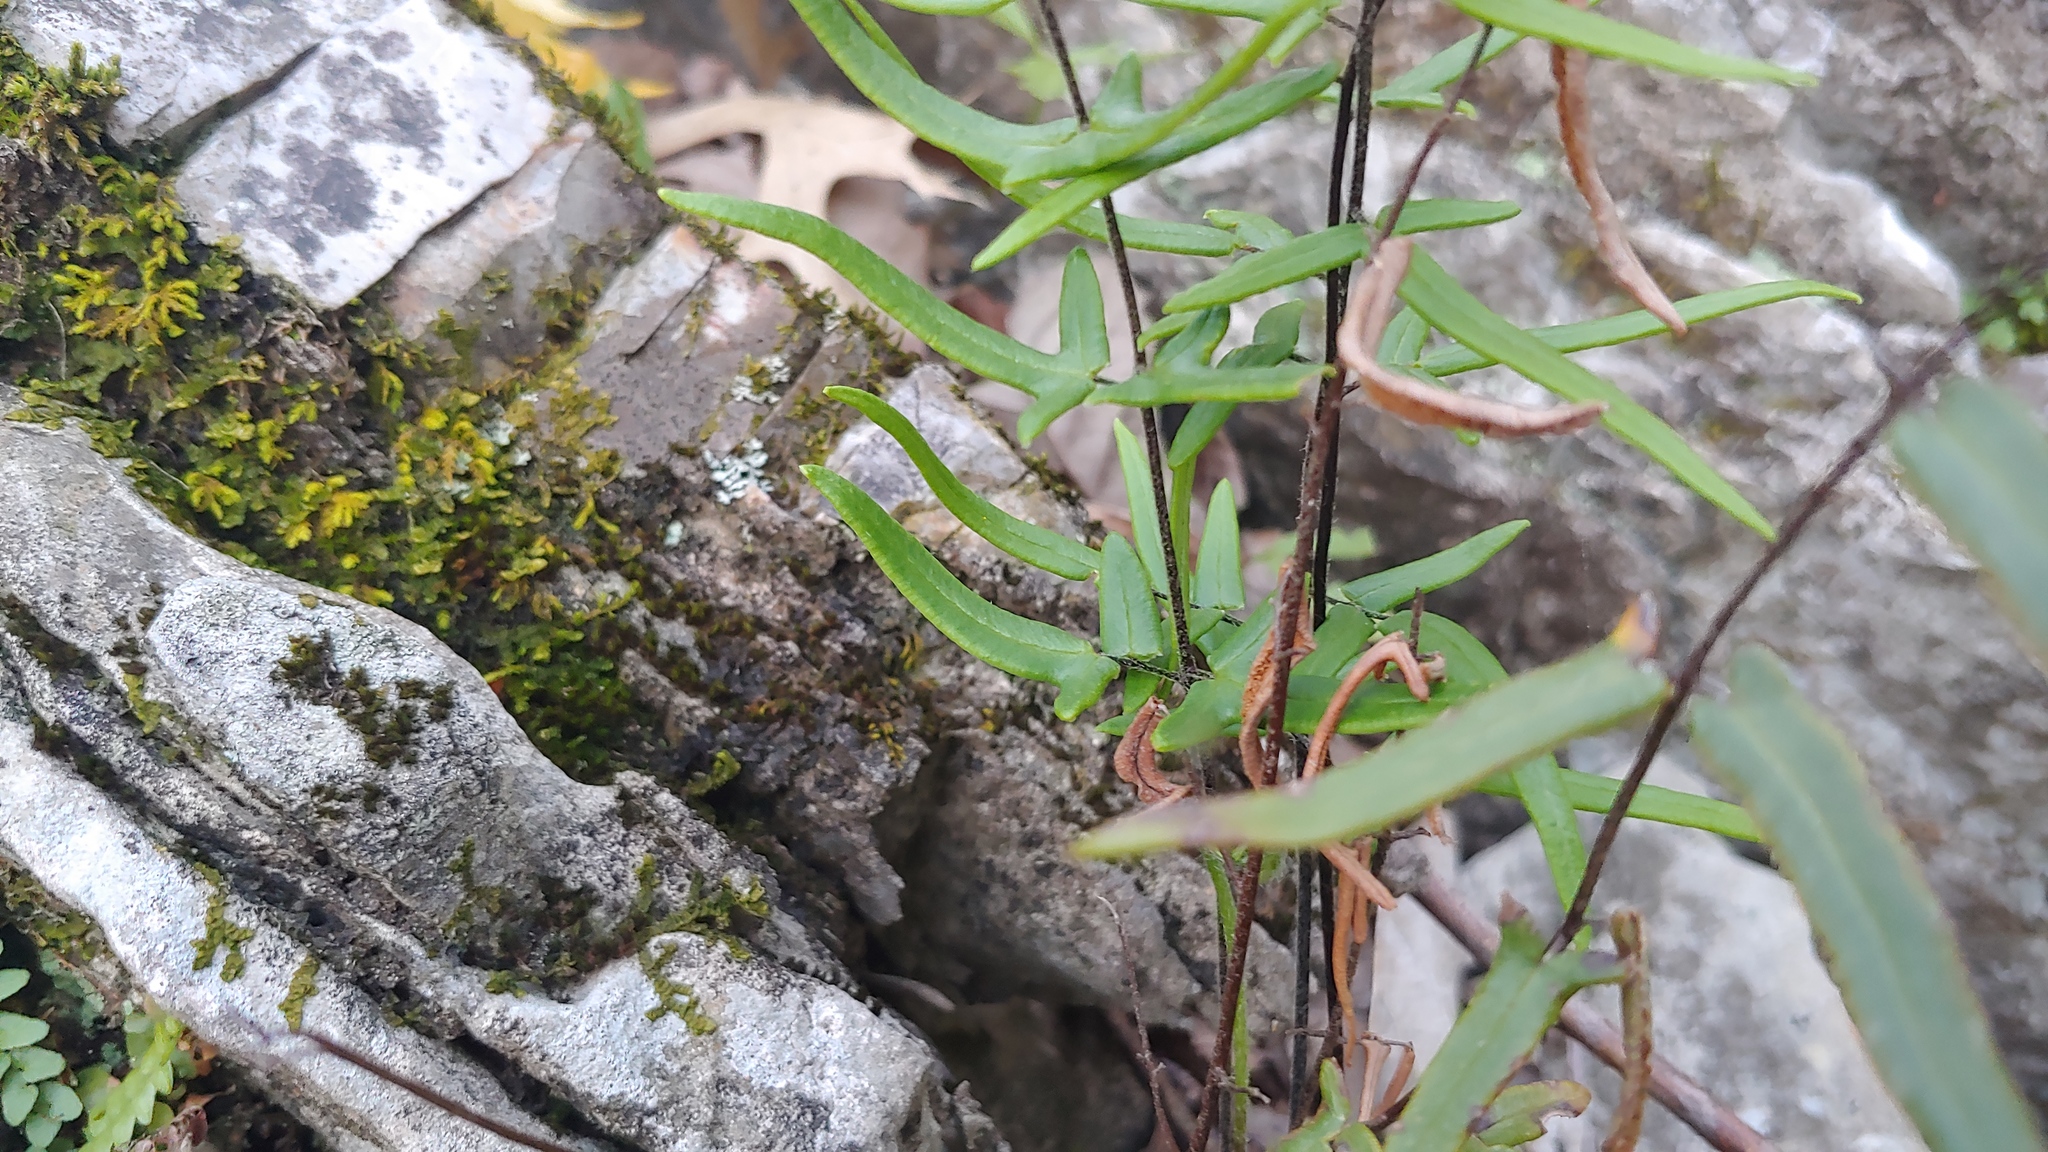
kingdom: Plantae
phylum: Tracheophyta
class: Polypodiopsida
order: Polypodiales
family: Pteridaceae
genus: Pellaea
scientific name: Pellaea atropurpurea
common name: Hairy cliffbrake
